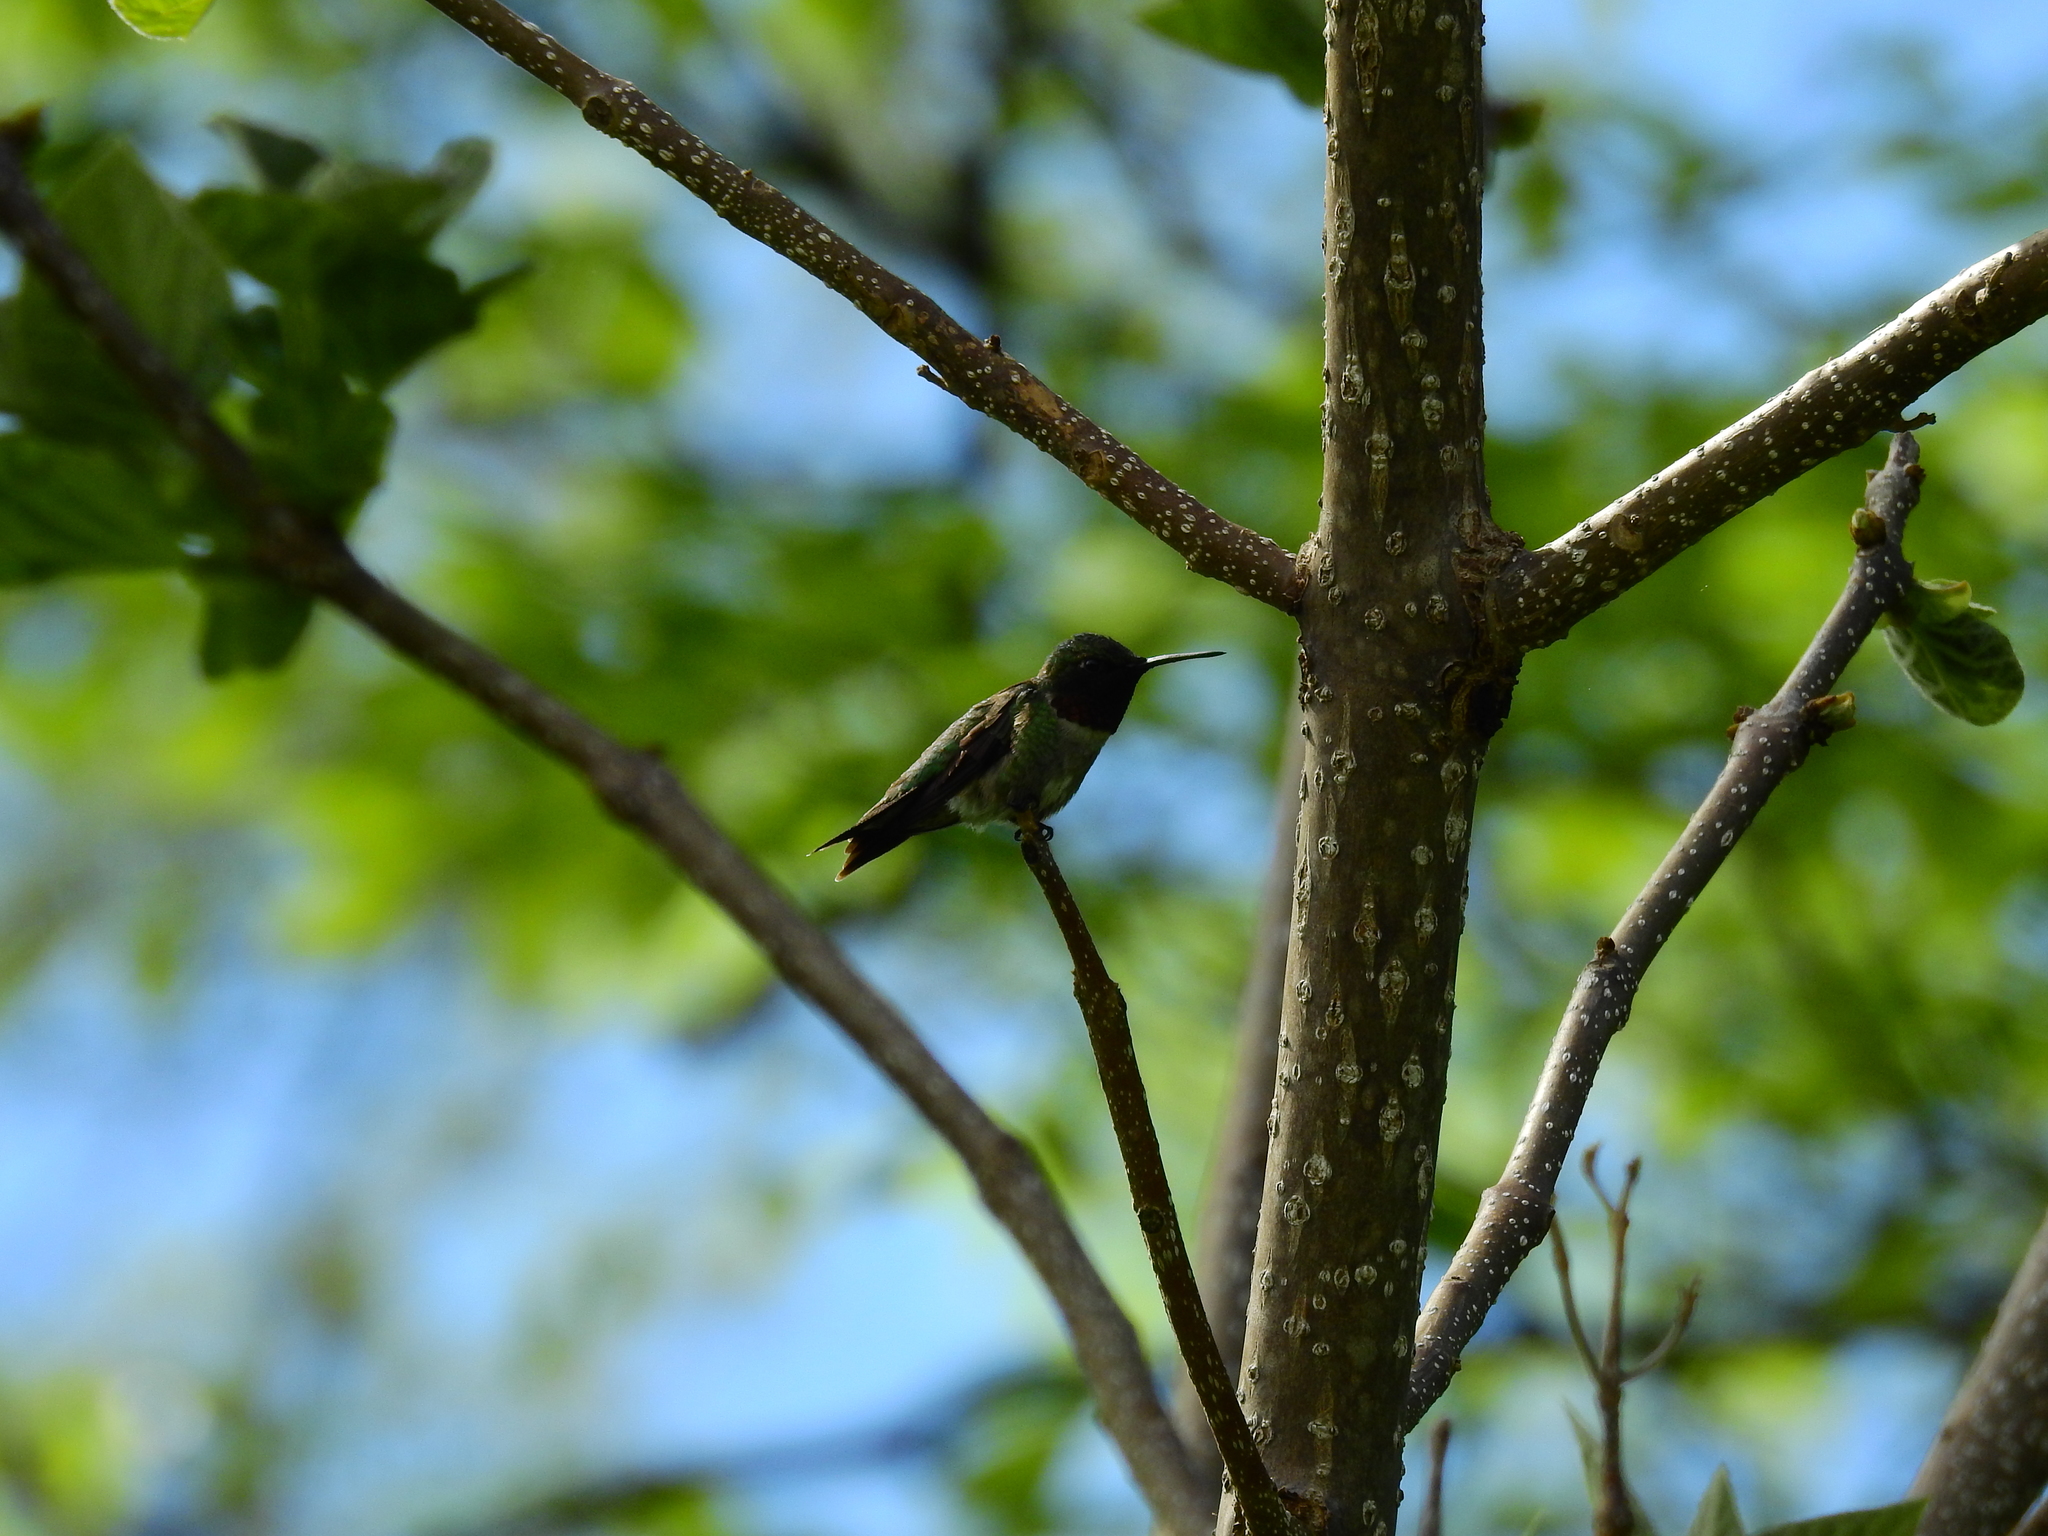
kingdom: Animalia
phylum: Chordata
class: Aves
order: Apodiformes
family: Trochilidae
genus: Archilochus
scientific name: Archilochus colubris
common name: Ruby-throated hummingbird
